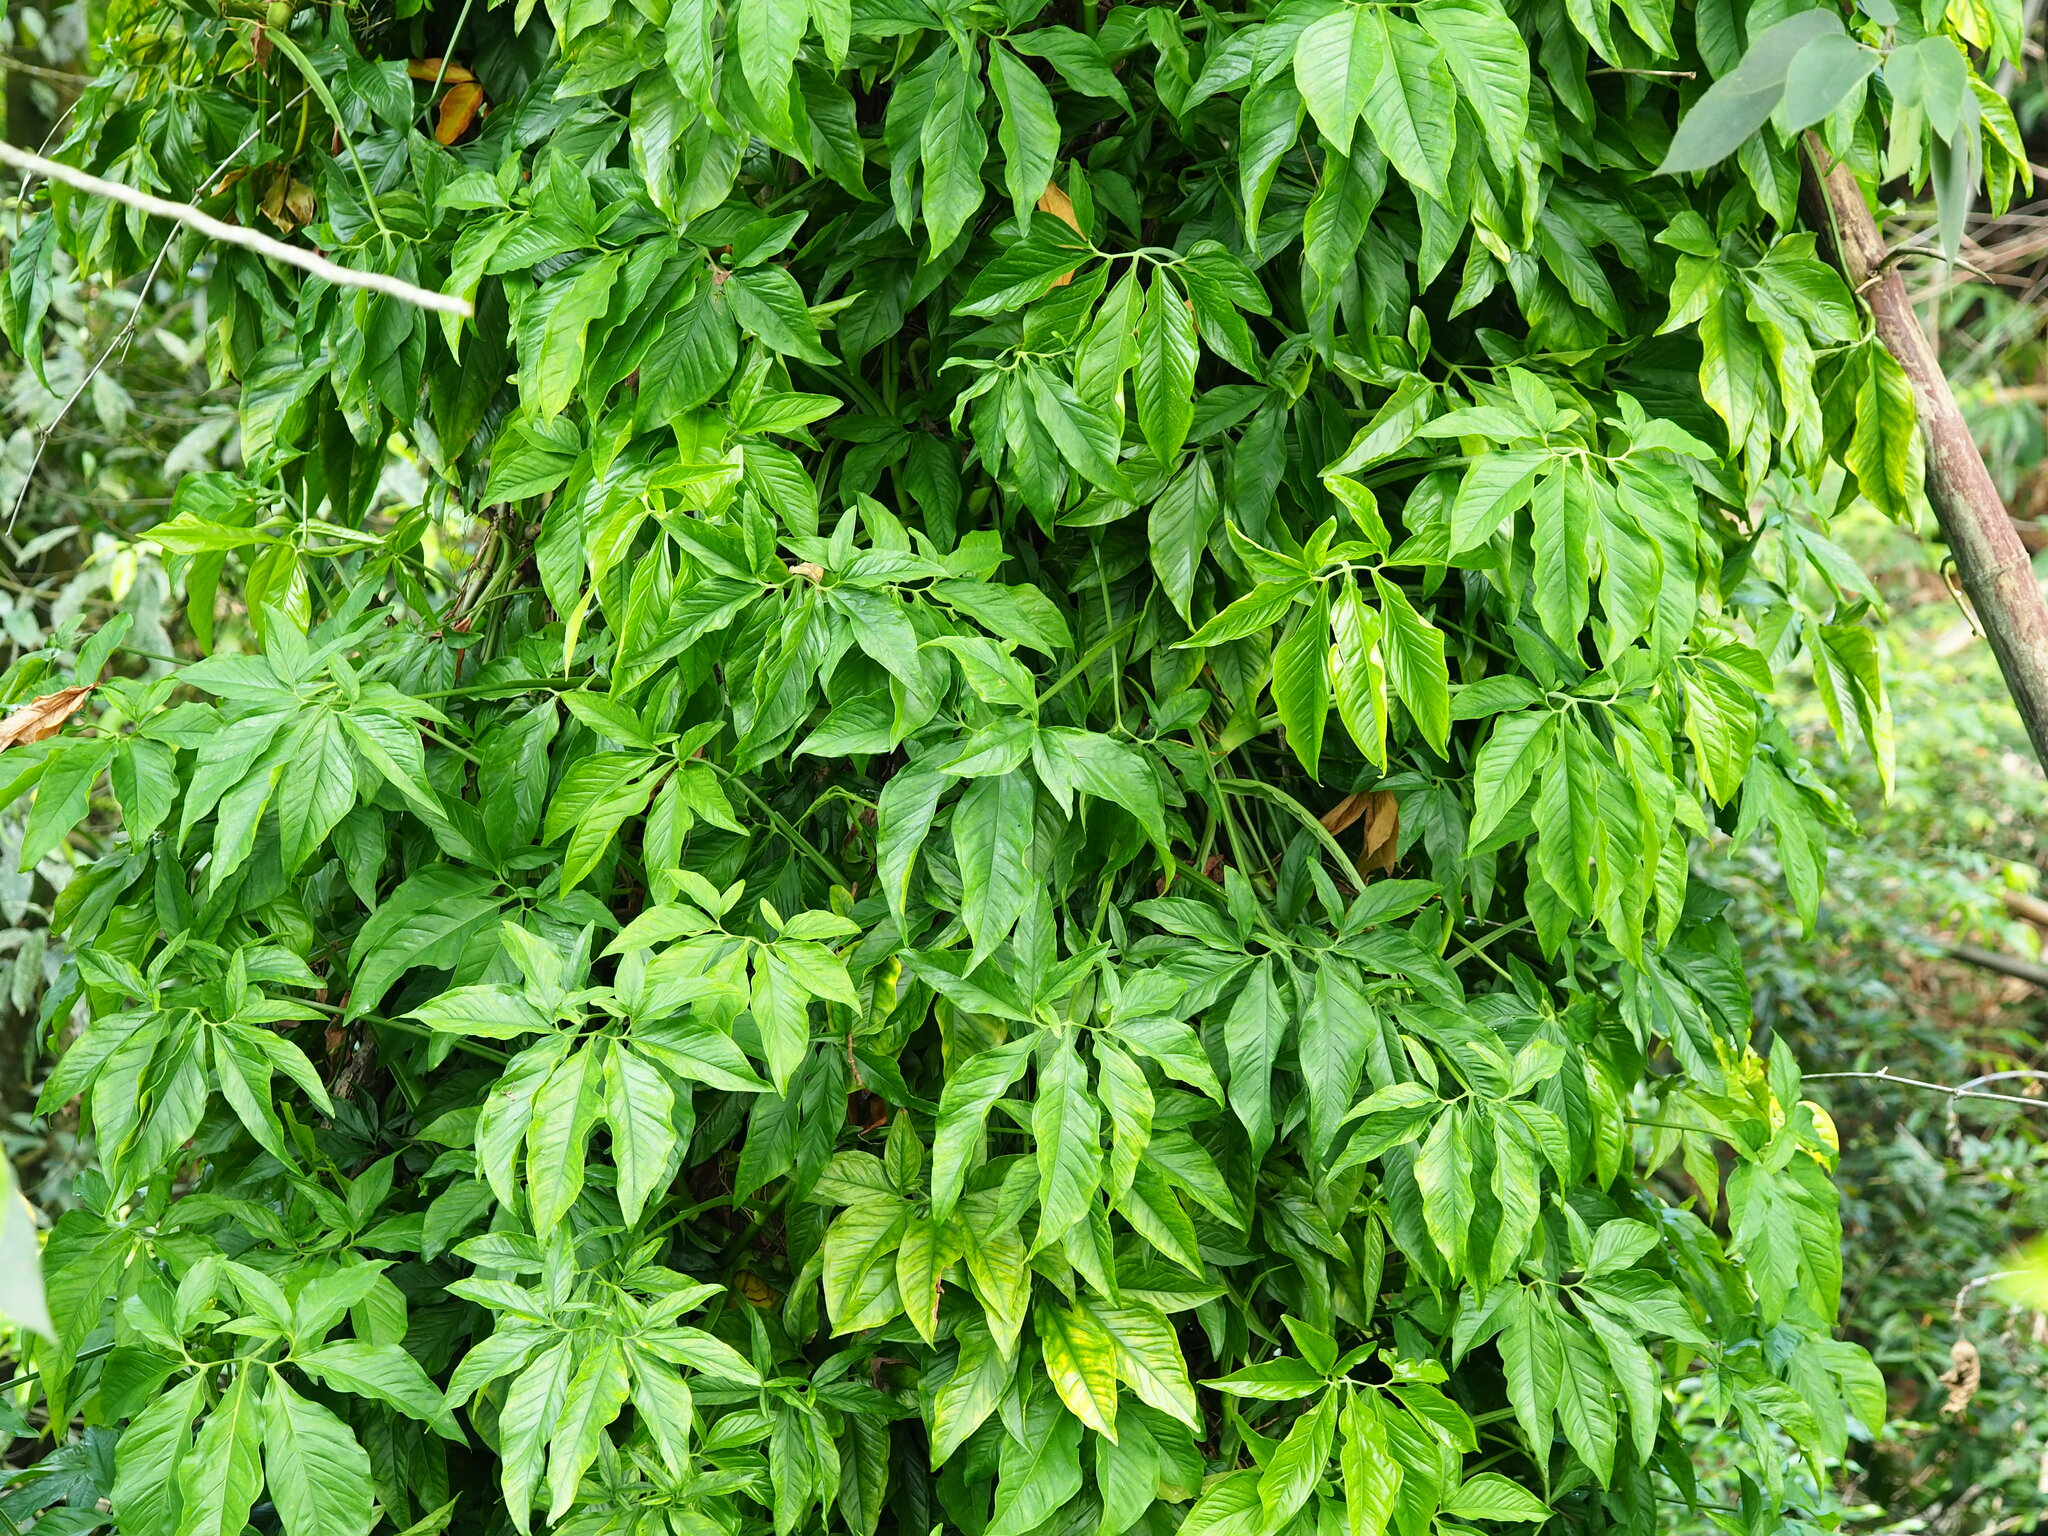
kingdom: Plantae
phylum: Tracheophyta
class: Liliopsida
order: Alismatales
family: Araceae
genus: Syngonium
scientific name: Syngonium angustatum
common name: Fivefingers
